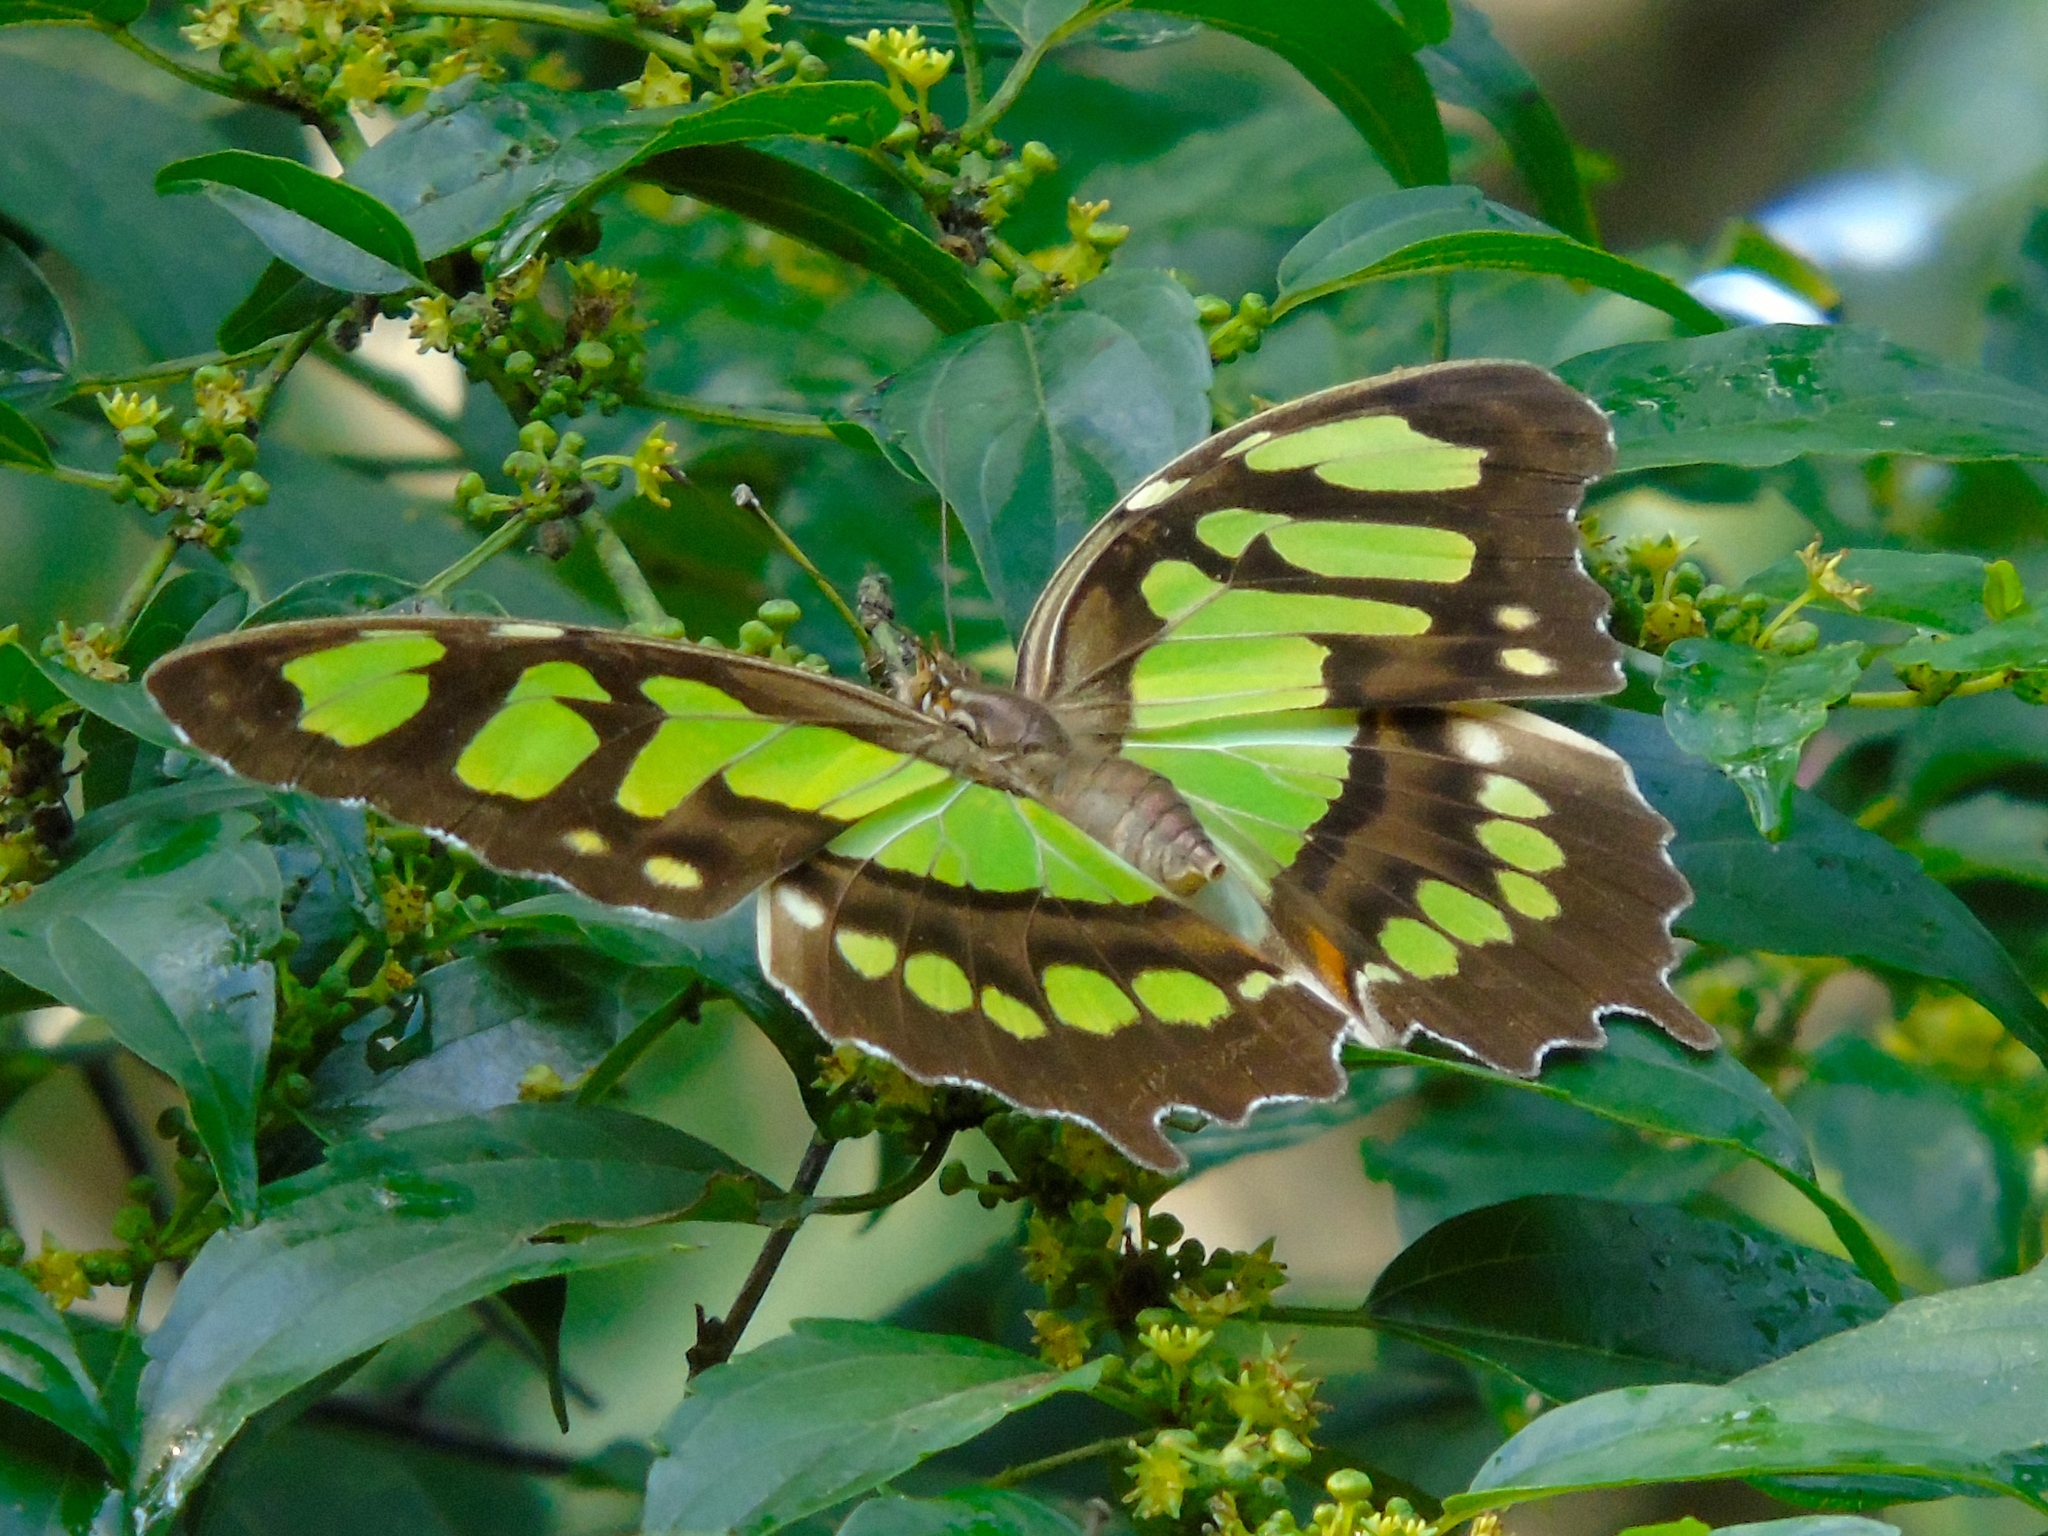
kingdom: Animalia
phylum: Arthropoda
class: Insecta
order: Lepidoptera
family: Nymphalidae
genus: Siproeta
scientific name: Siproeta stelenes
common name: Malachite
